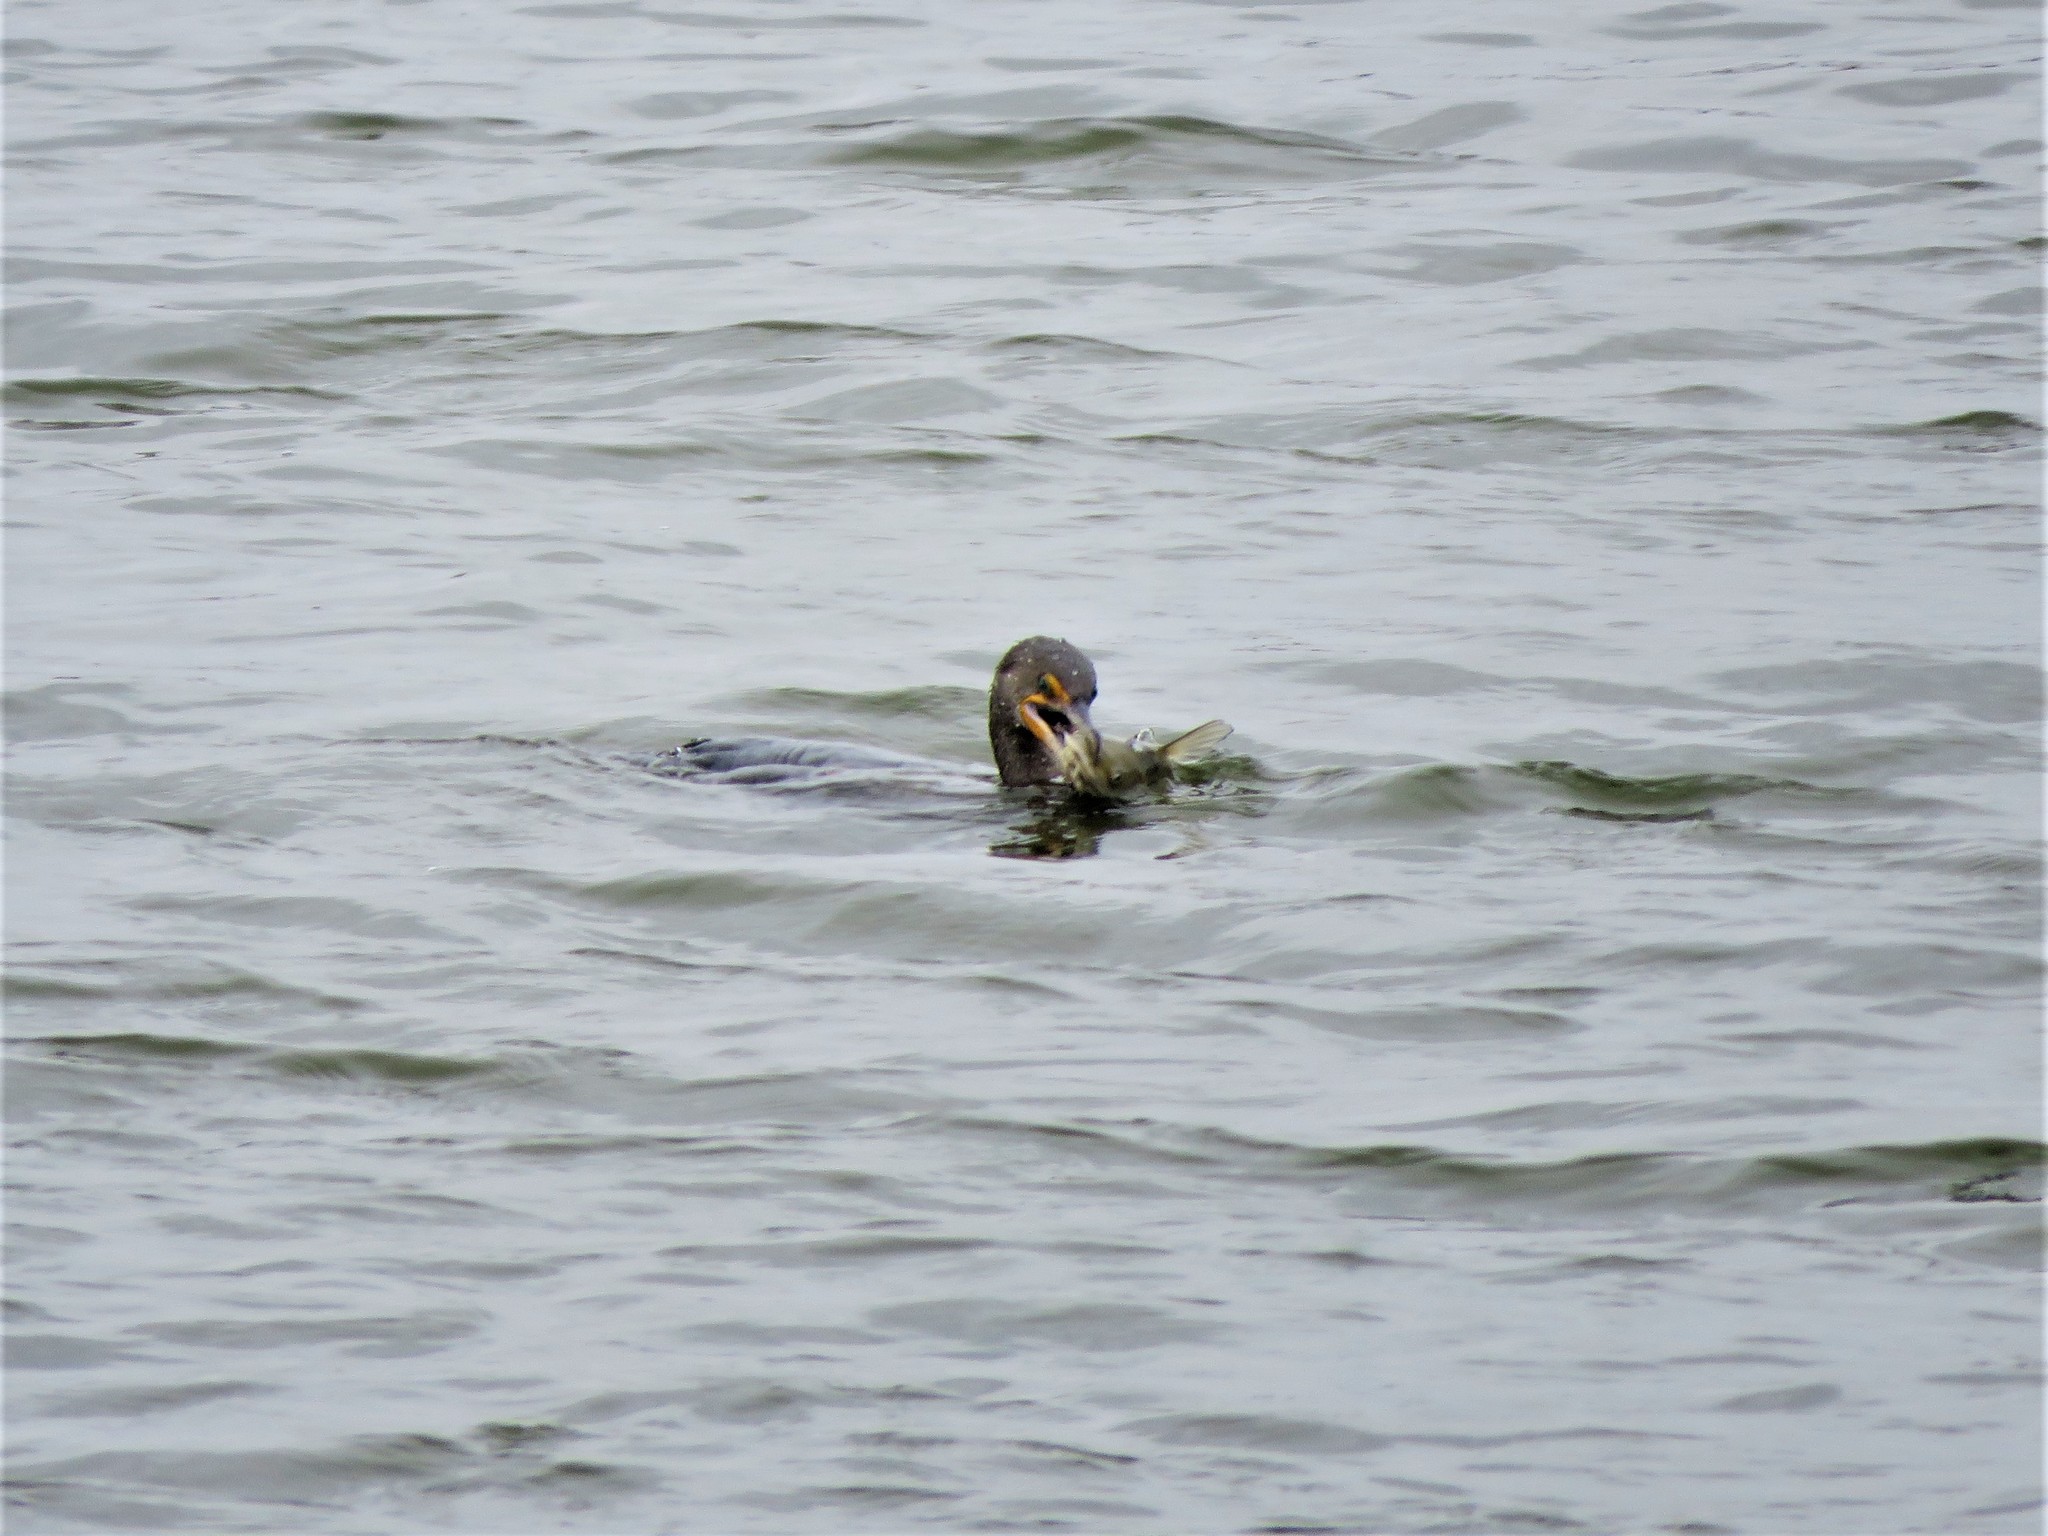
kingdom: Animalia
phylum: Chordata
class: Aves
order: Suliformes
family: Phalacrocoracidae
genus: Phalacrocorax
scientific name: Phalacrocorax auritus
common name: Double-crested cormorant
